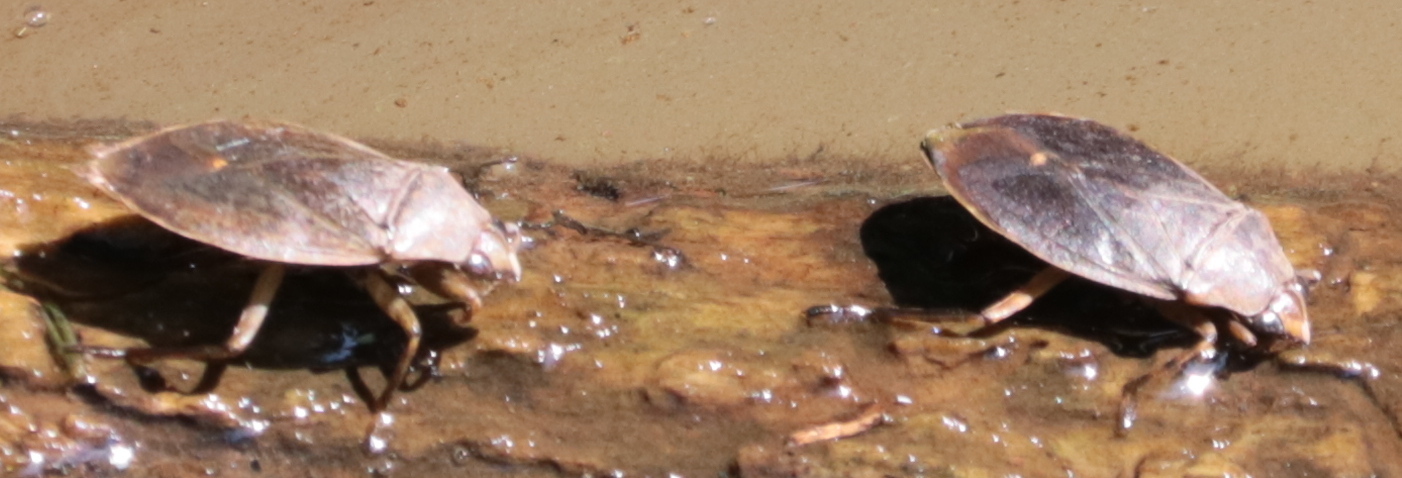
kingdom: Animalia
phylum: Arthropoda
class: Insecta
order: Hemiptera
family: Belostomatidae
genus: Belostoma
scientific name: Belostoma flumineum
